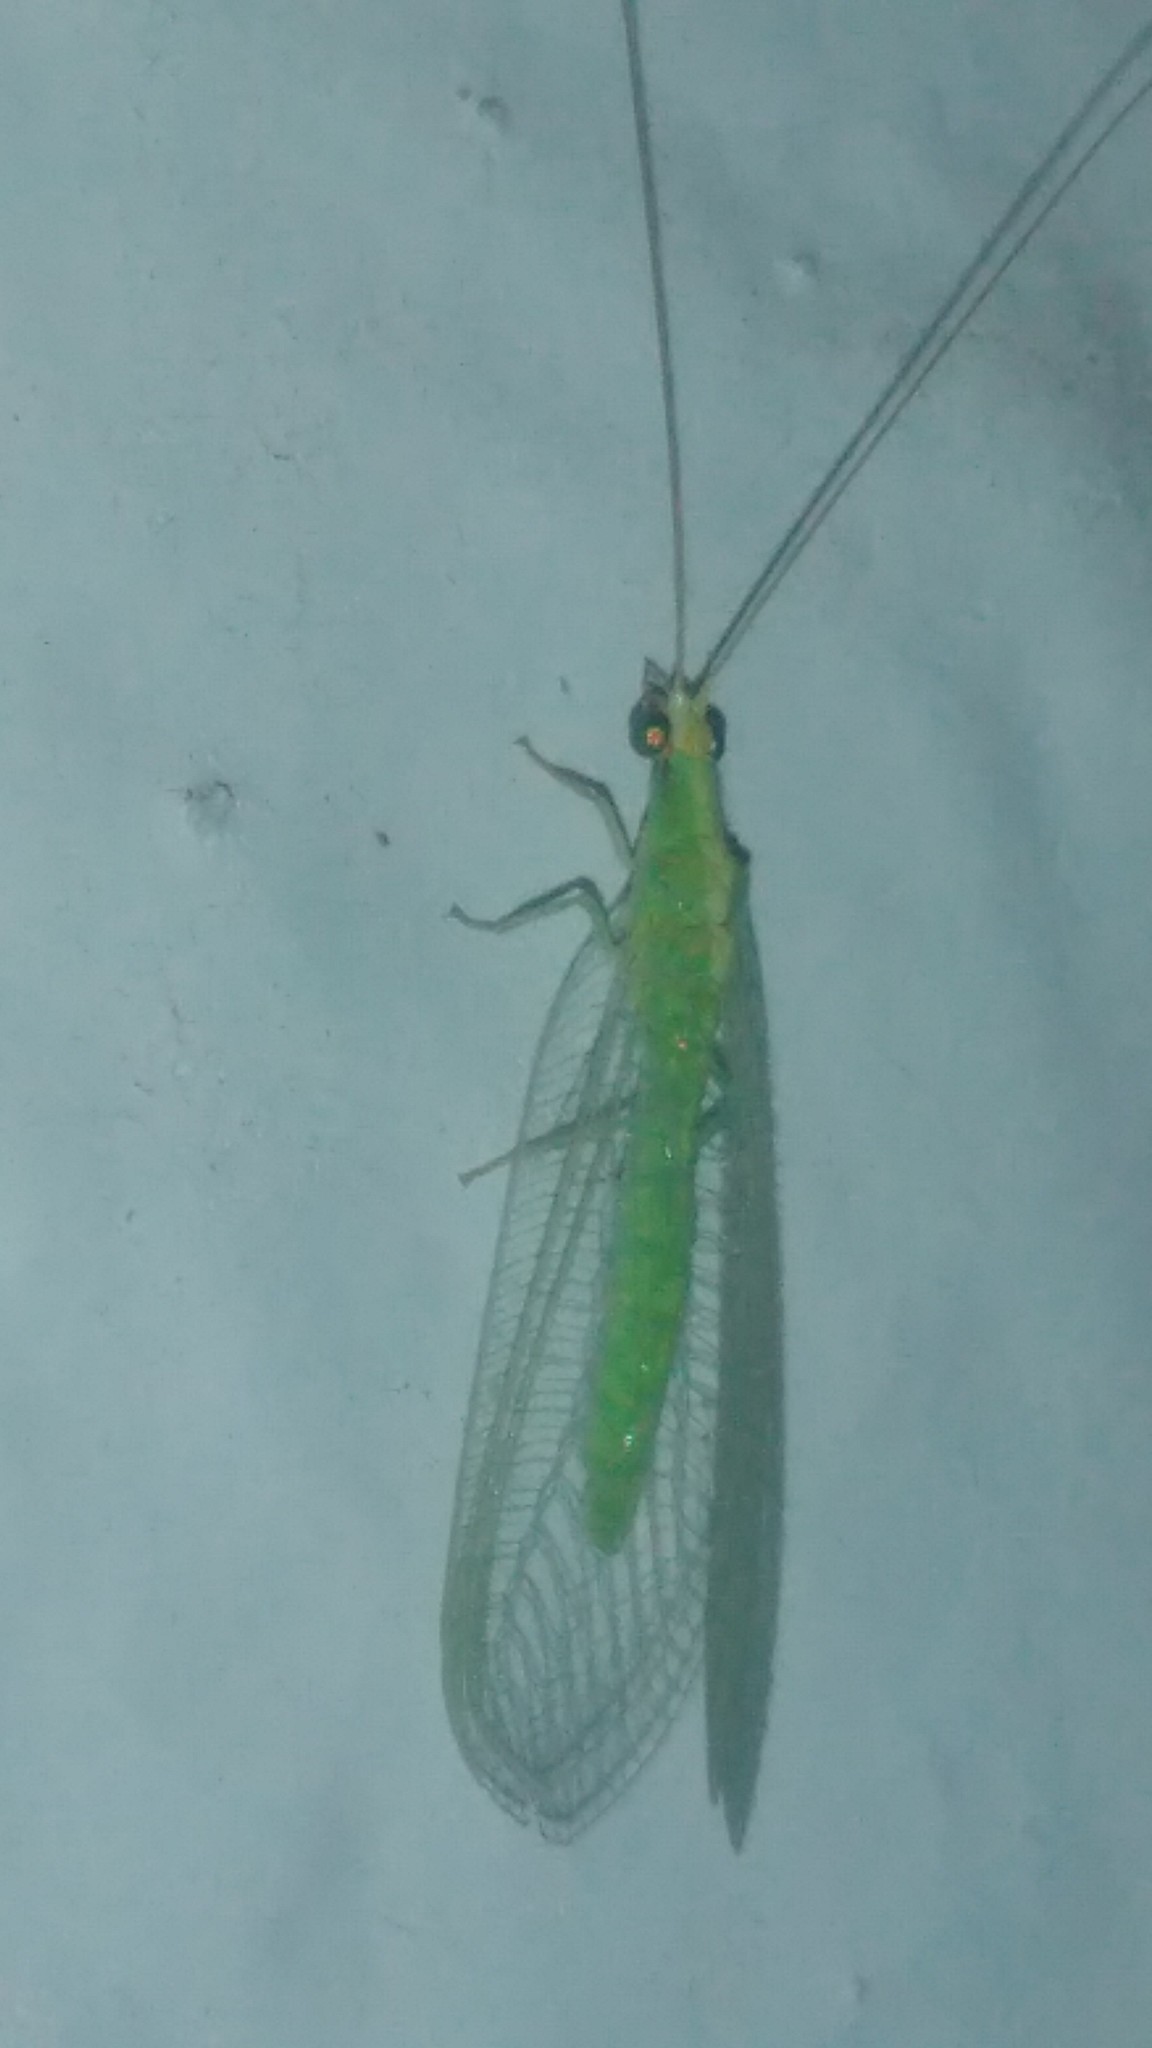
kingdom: Animalia
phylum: Arthropoda
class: Insecta
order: Neuroptera
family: Chrysopidae
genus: Chrysoperla
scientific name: Chrysoperla externa
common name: Green lacewing
